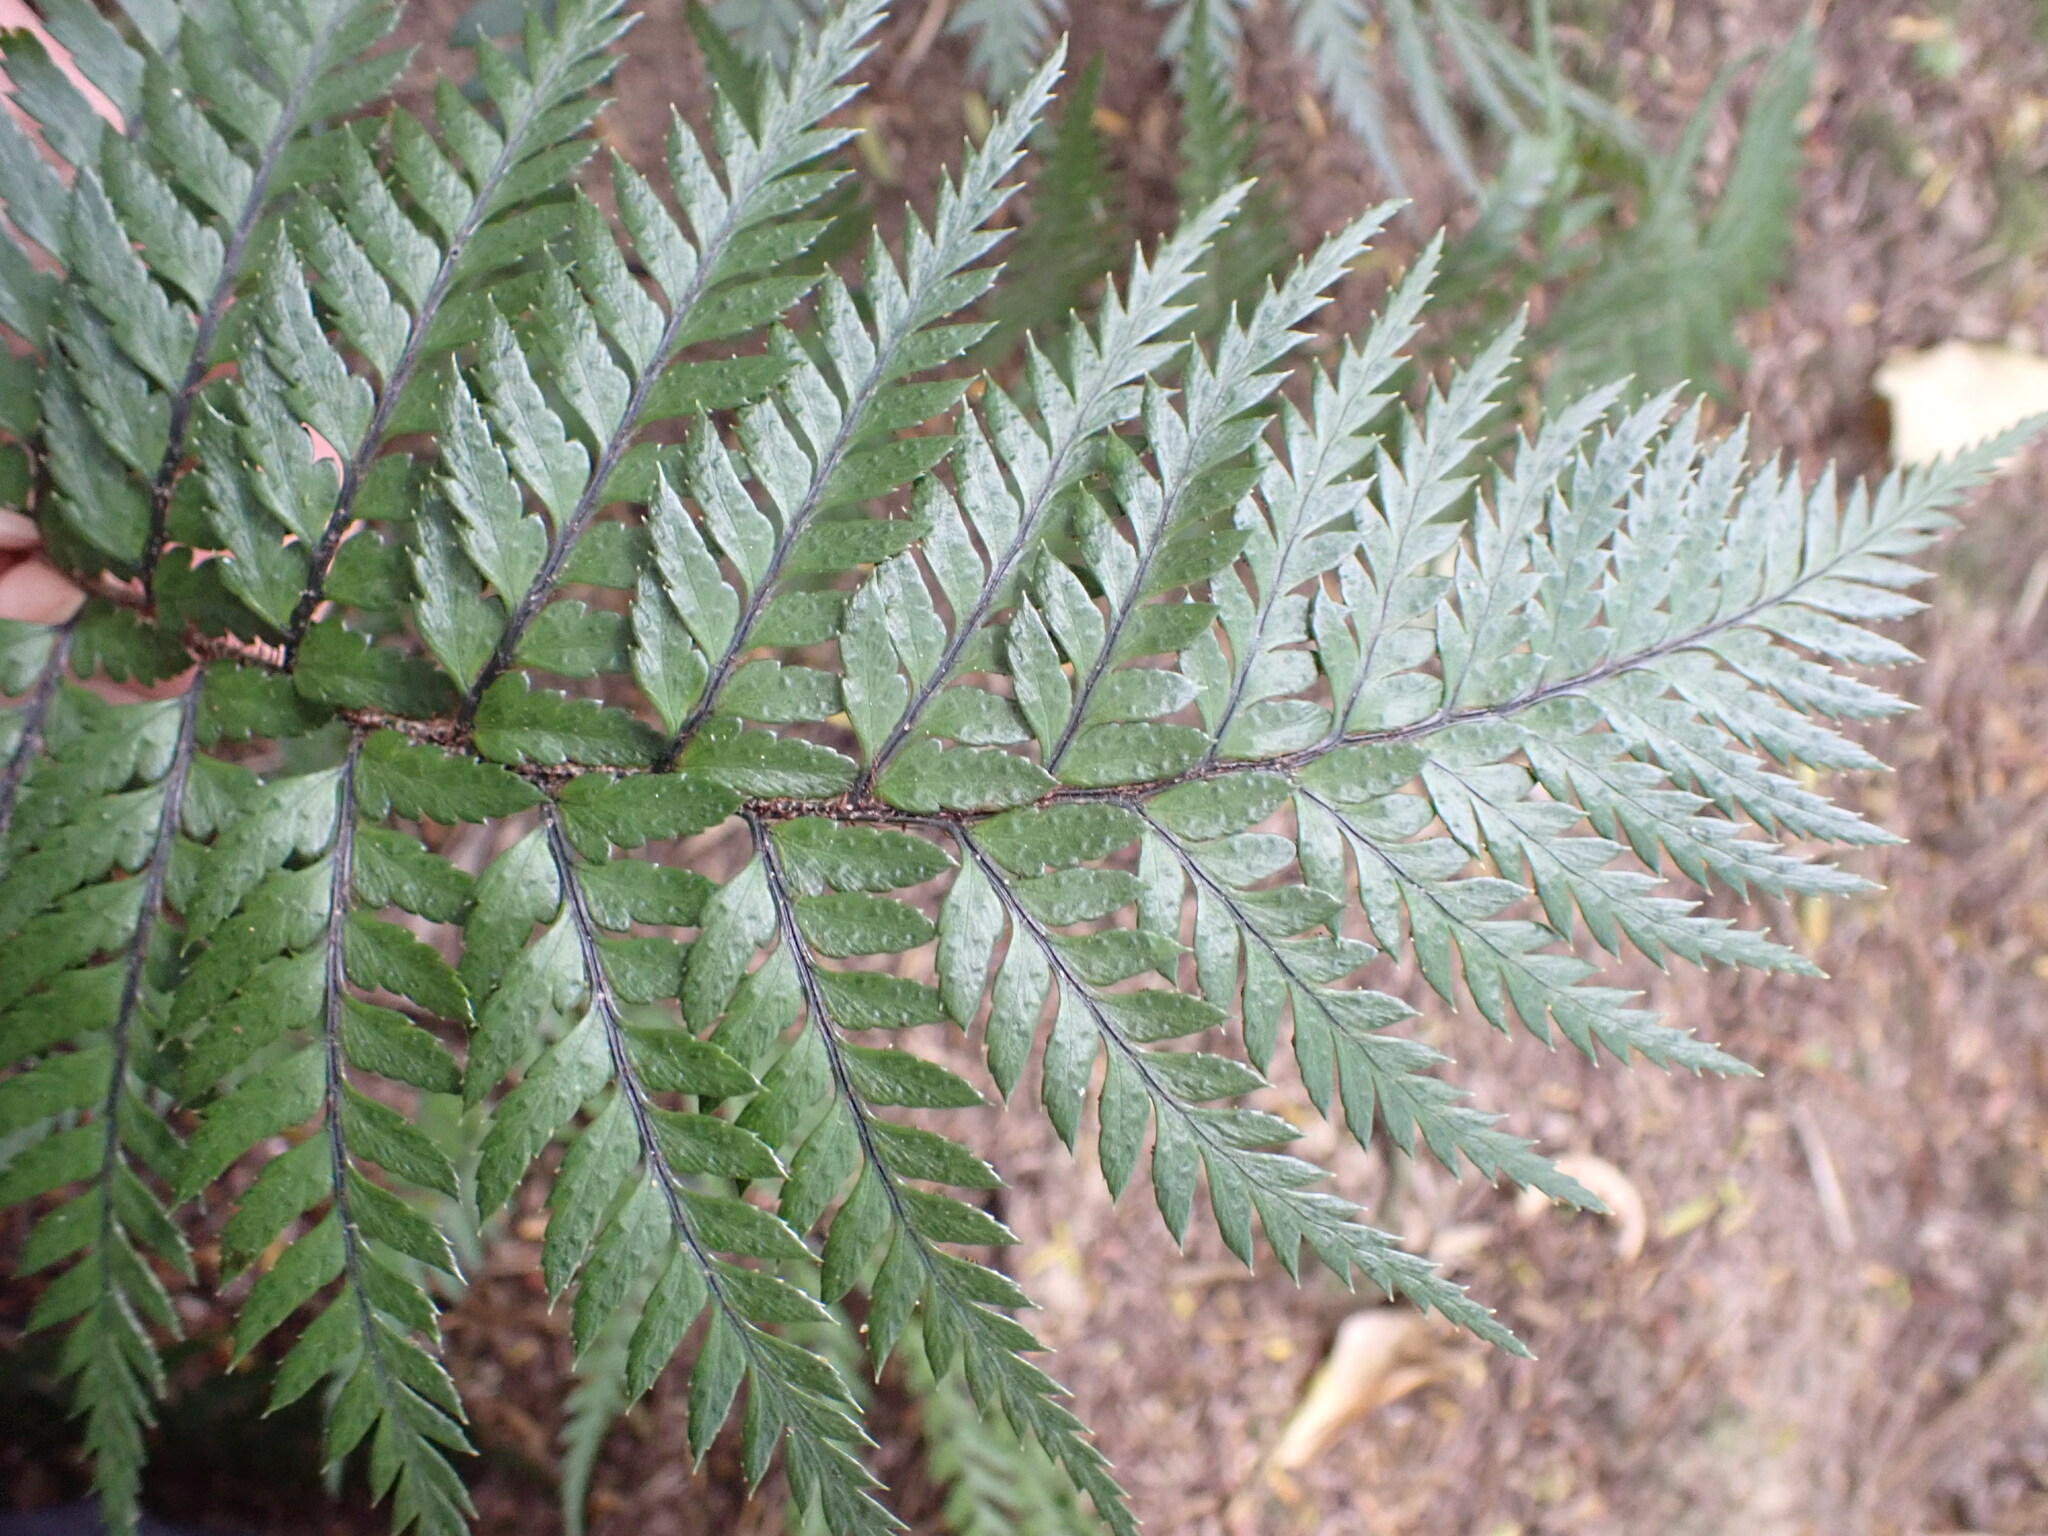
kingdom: Plantae
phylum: Tracheophyta
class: Polypodiopsida
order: Polypodiales
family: Dryopteridaceae
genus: Polystichum
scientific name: Polystichum neozelandicum
